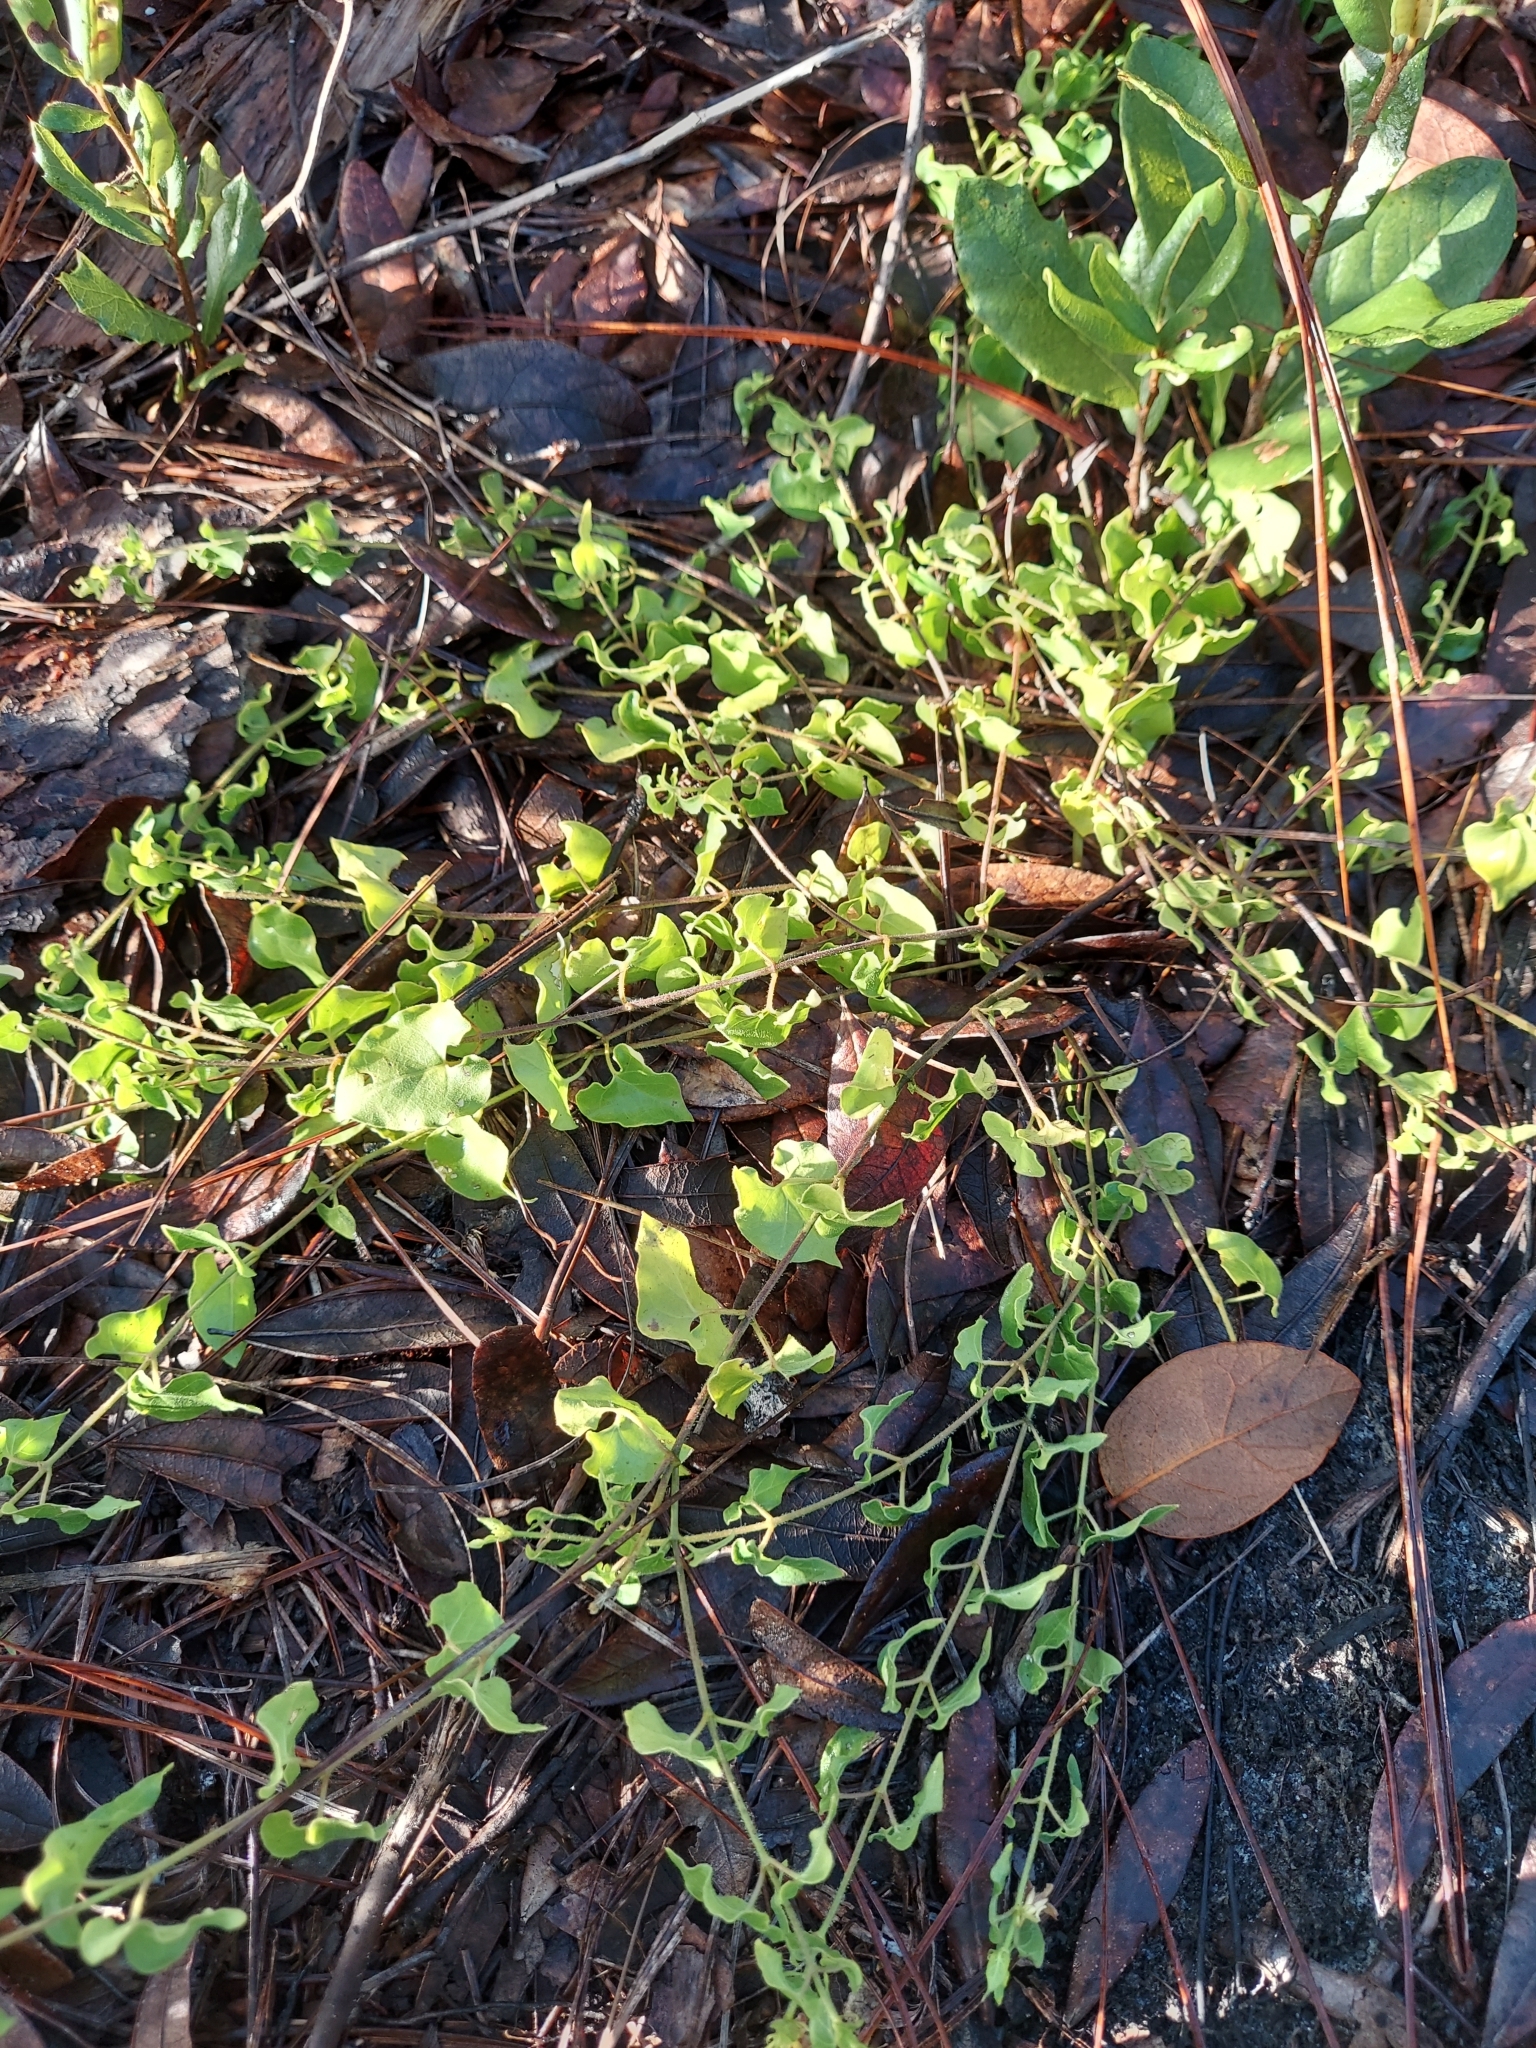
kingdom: Plantae
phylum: Tracheophyta
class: Magnoliopsida
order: Gentianales
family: Apocynaceae
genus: Chthamalia
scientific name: Chthamalia pubiflora
